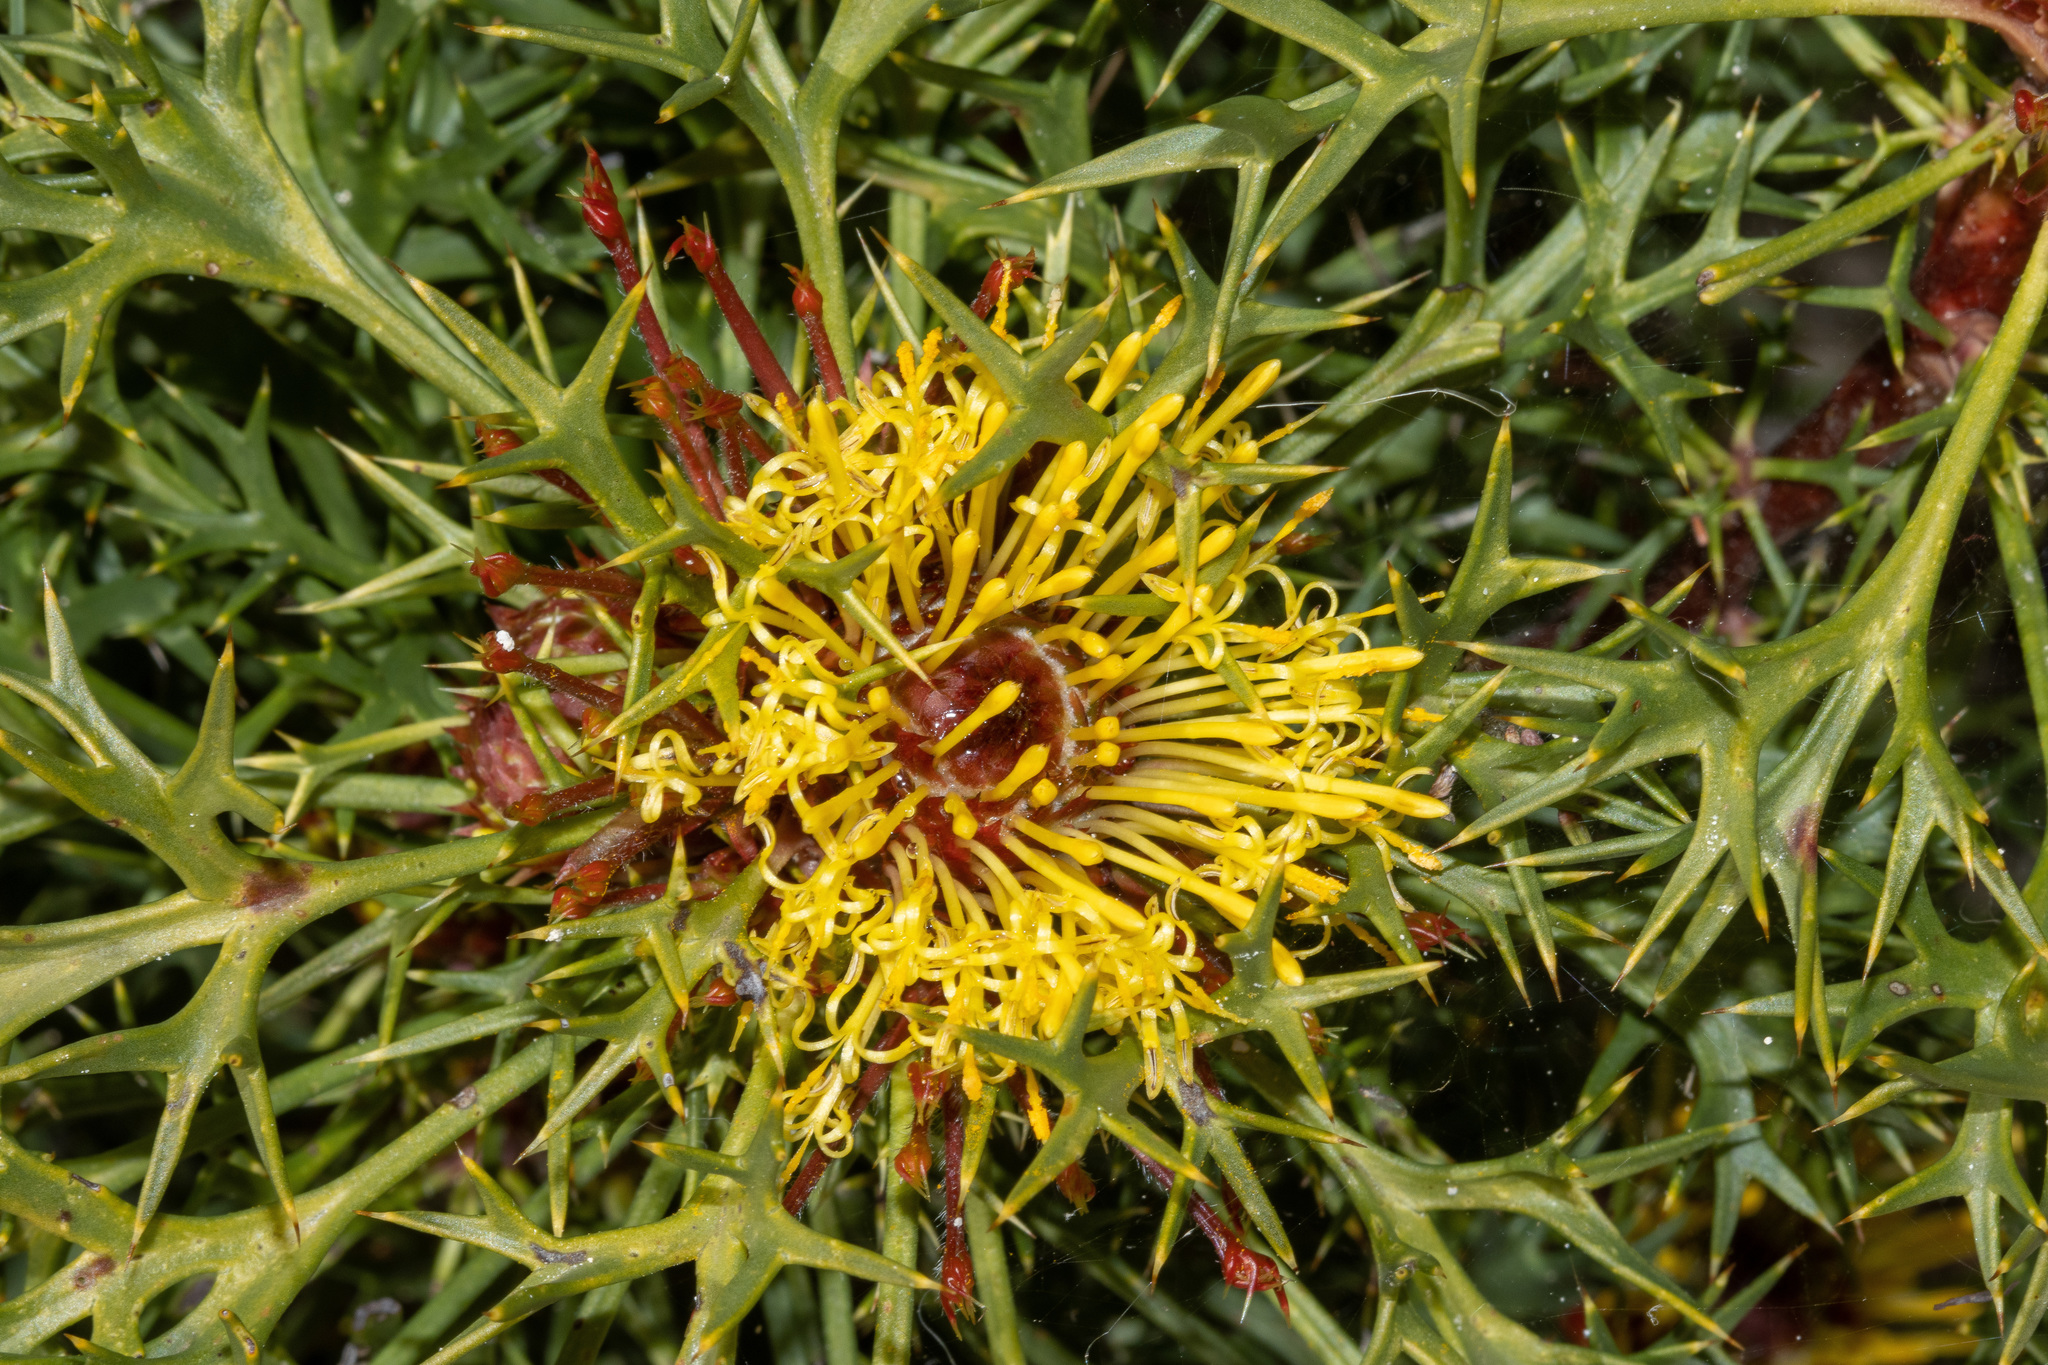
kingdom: Plantae
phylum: Tracheophyta
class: Magnoliopsida
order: Proteales
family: Proteaceae
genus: Isopogon
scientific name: Isopogon ceratophyllus
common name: Horny cone-bush
